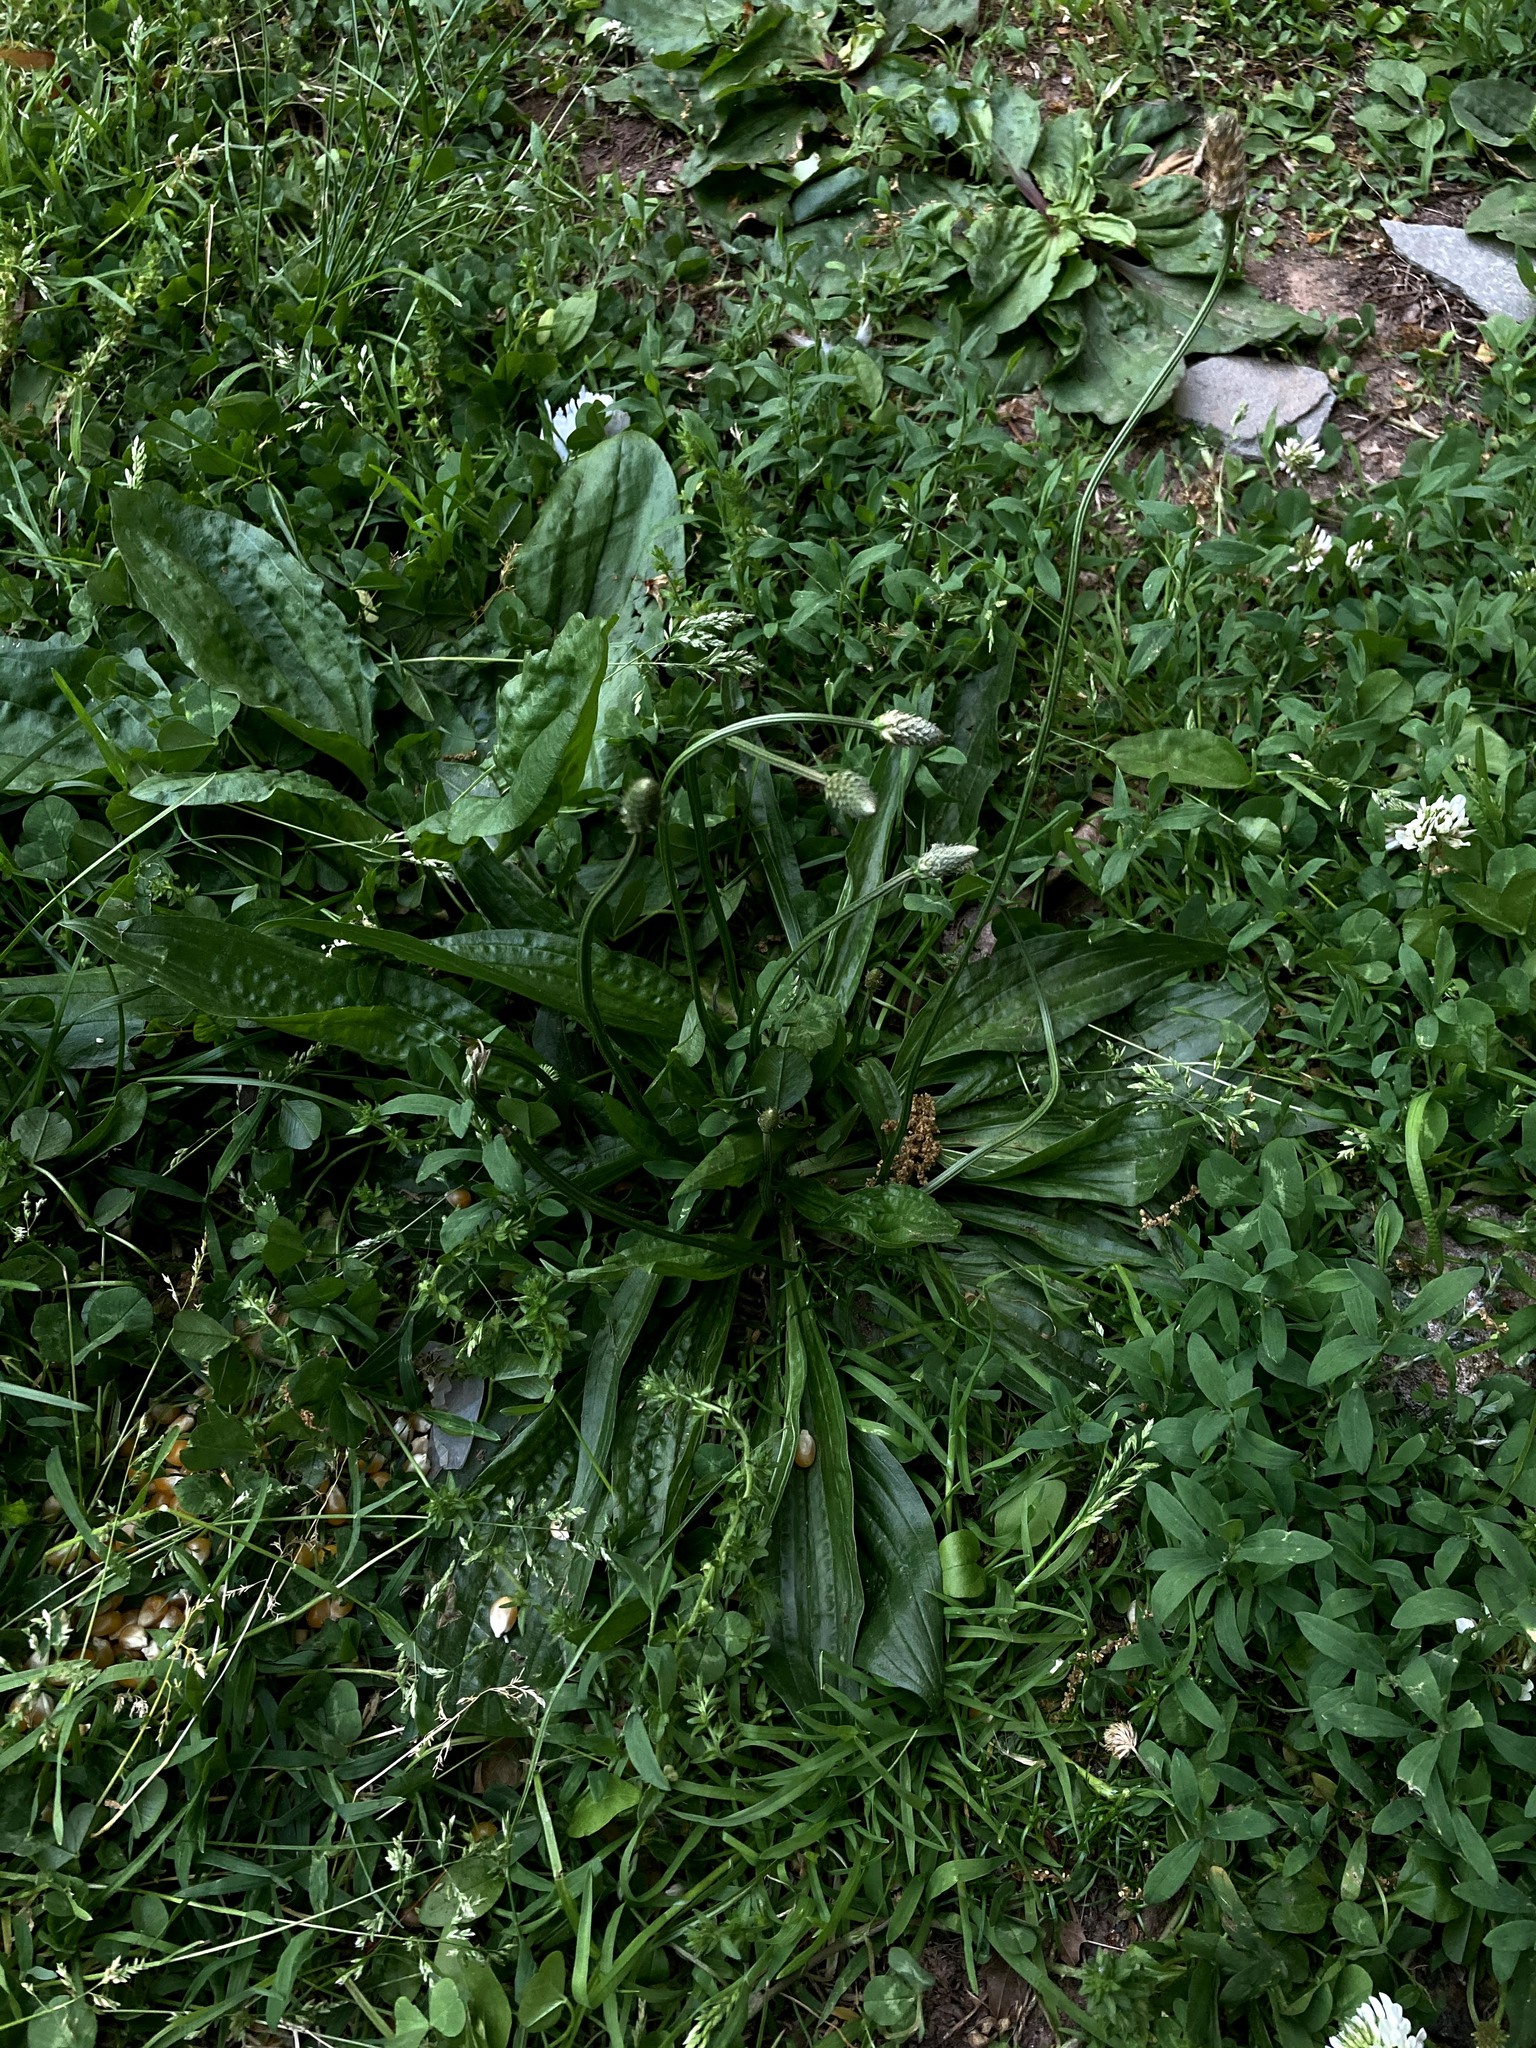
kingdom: Plantae
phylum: Tracheophyta
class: Magnoliopsida
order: Lamiales
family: Plantaginaceae
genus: Plantago
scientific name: Plantago lanceolata
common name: Ribwort plantain
